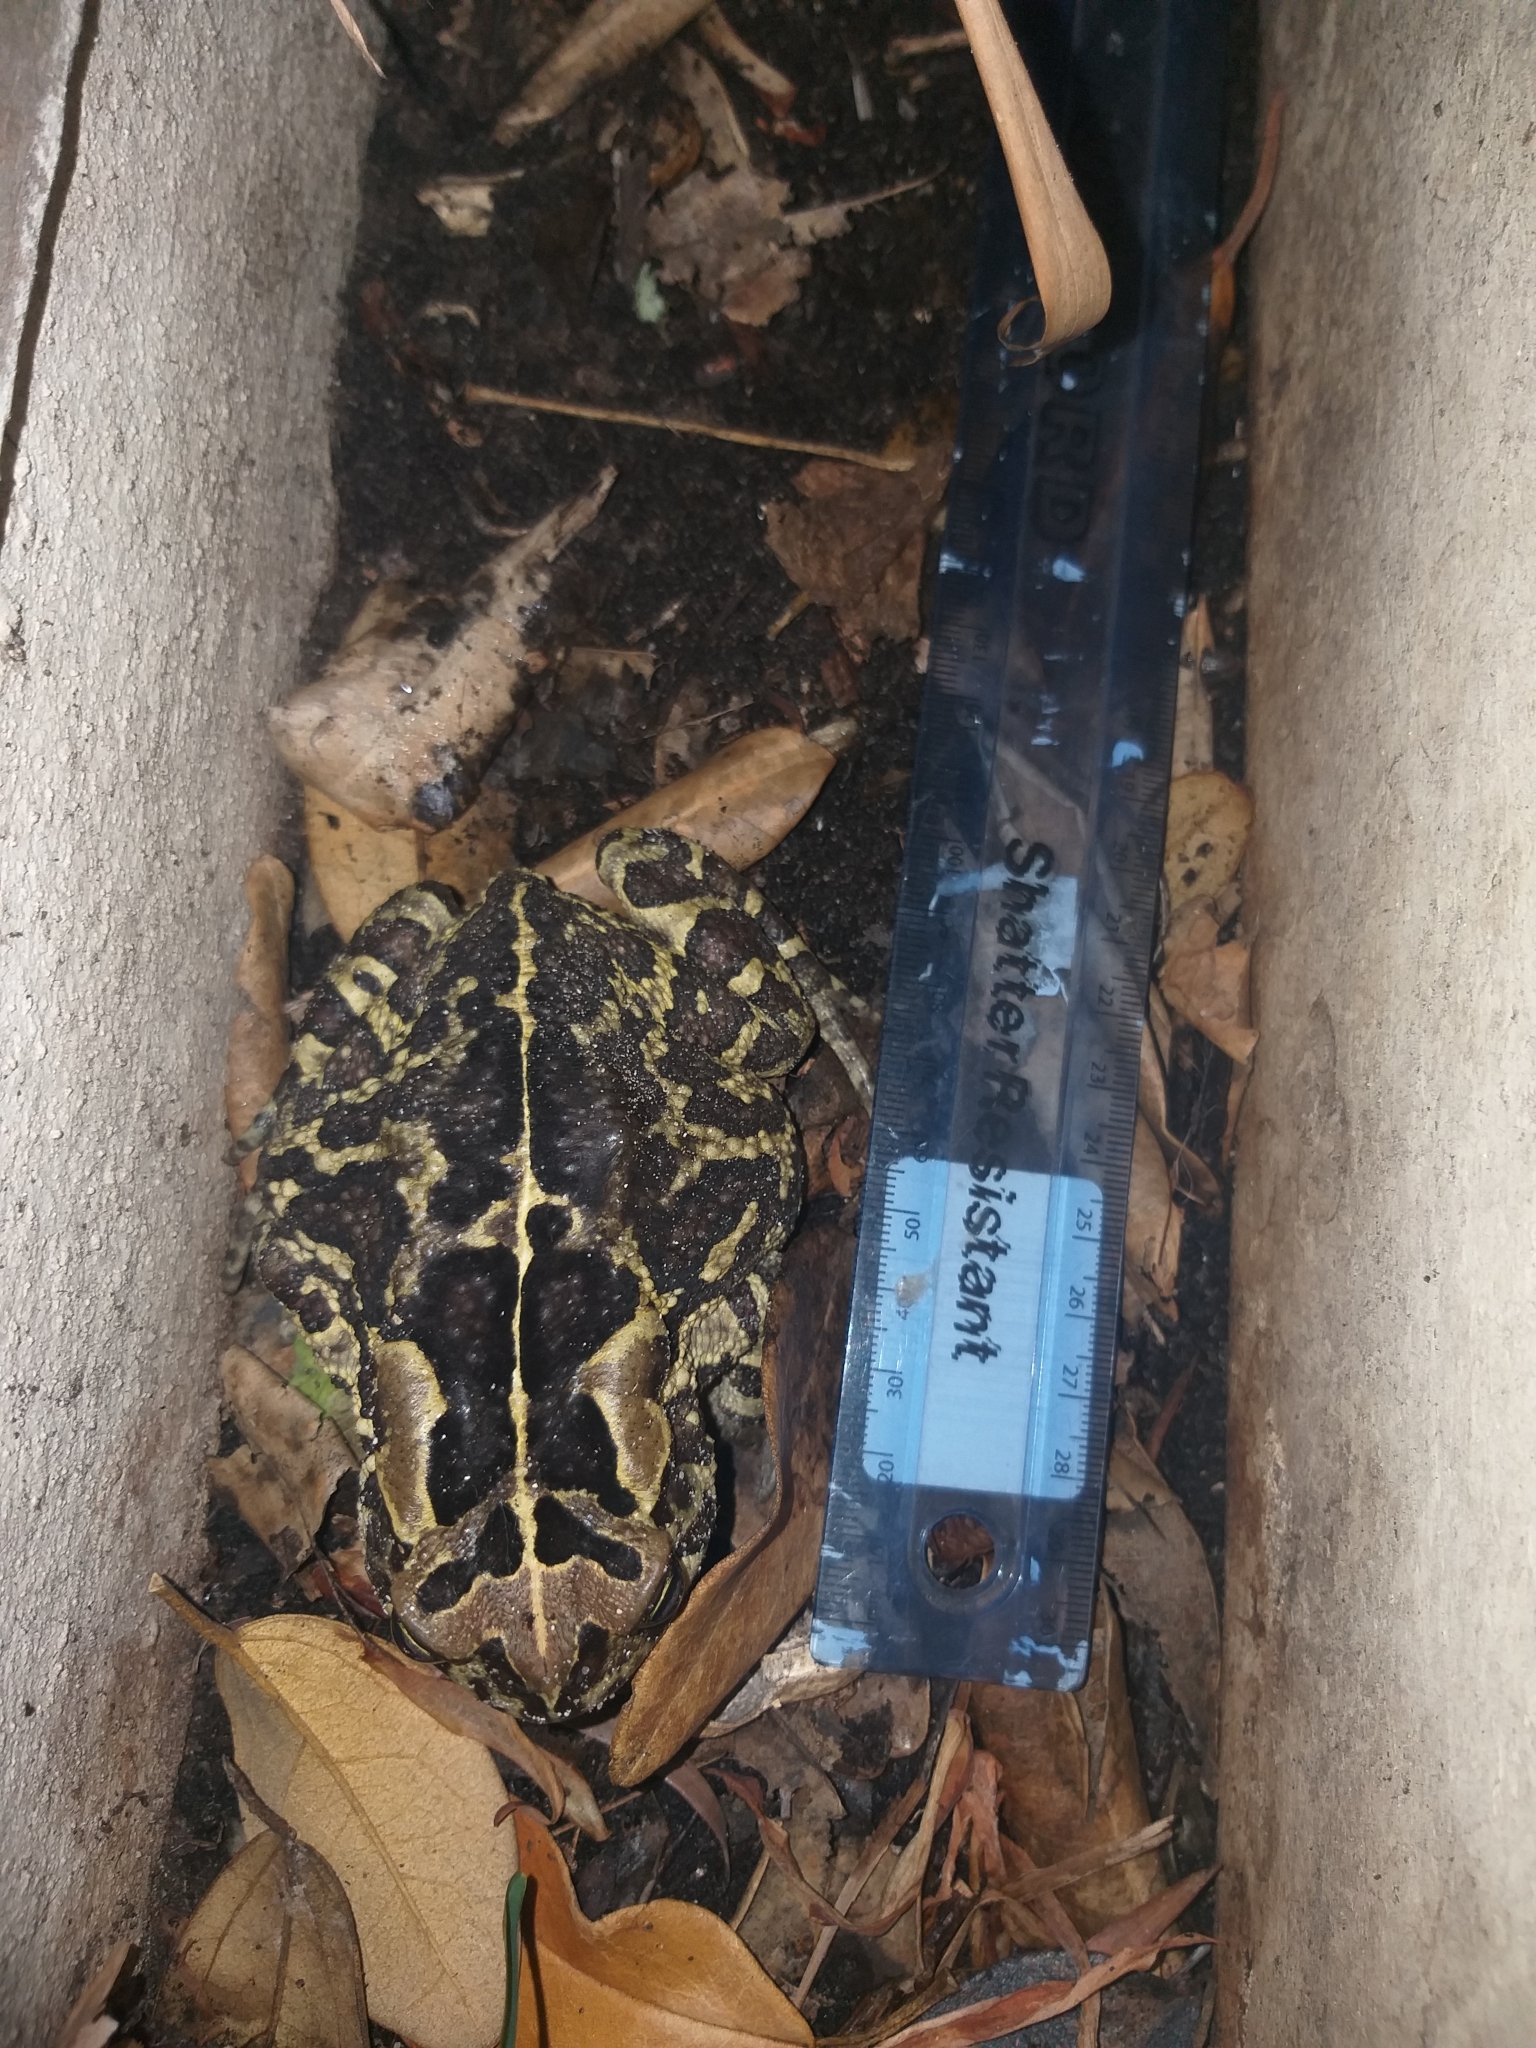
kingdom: Animalia
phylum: Chordata
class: Amphibia
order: Anura
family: Bufonidae
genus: Sclerophrys
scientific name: Sclerophrys pantherina
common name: Panther toad
